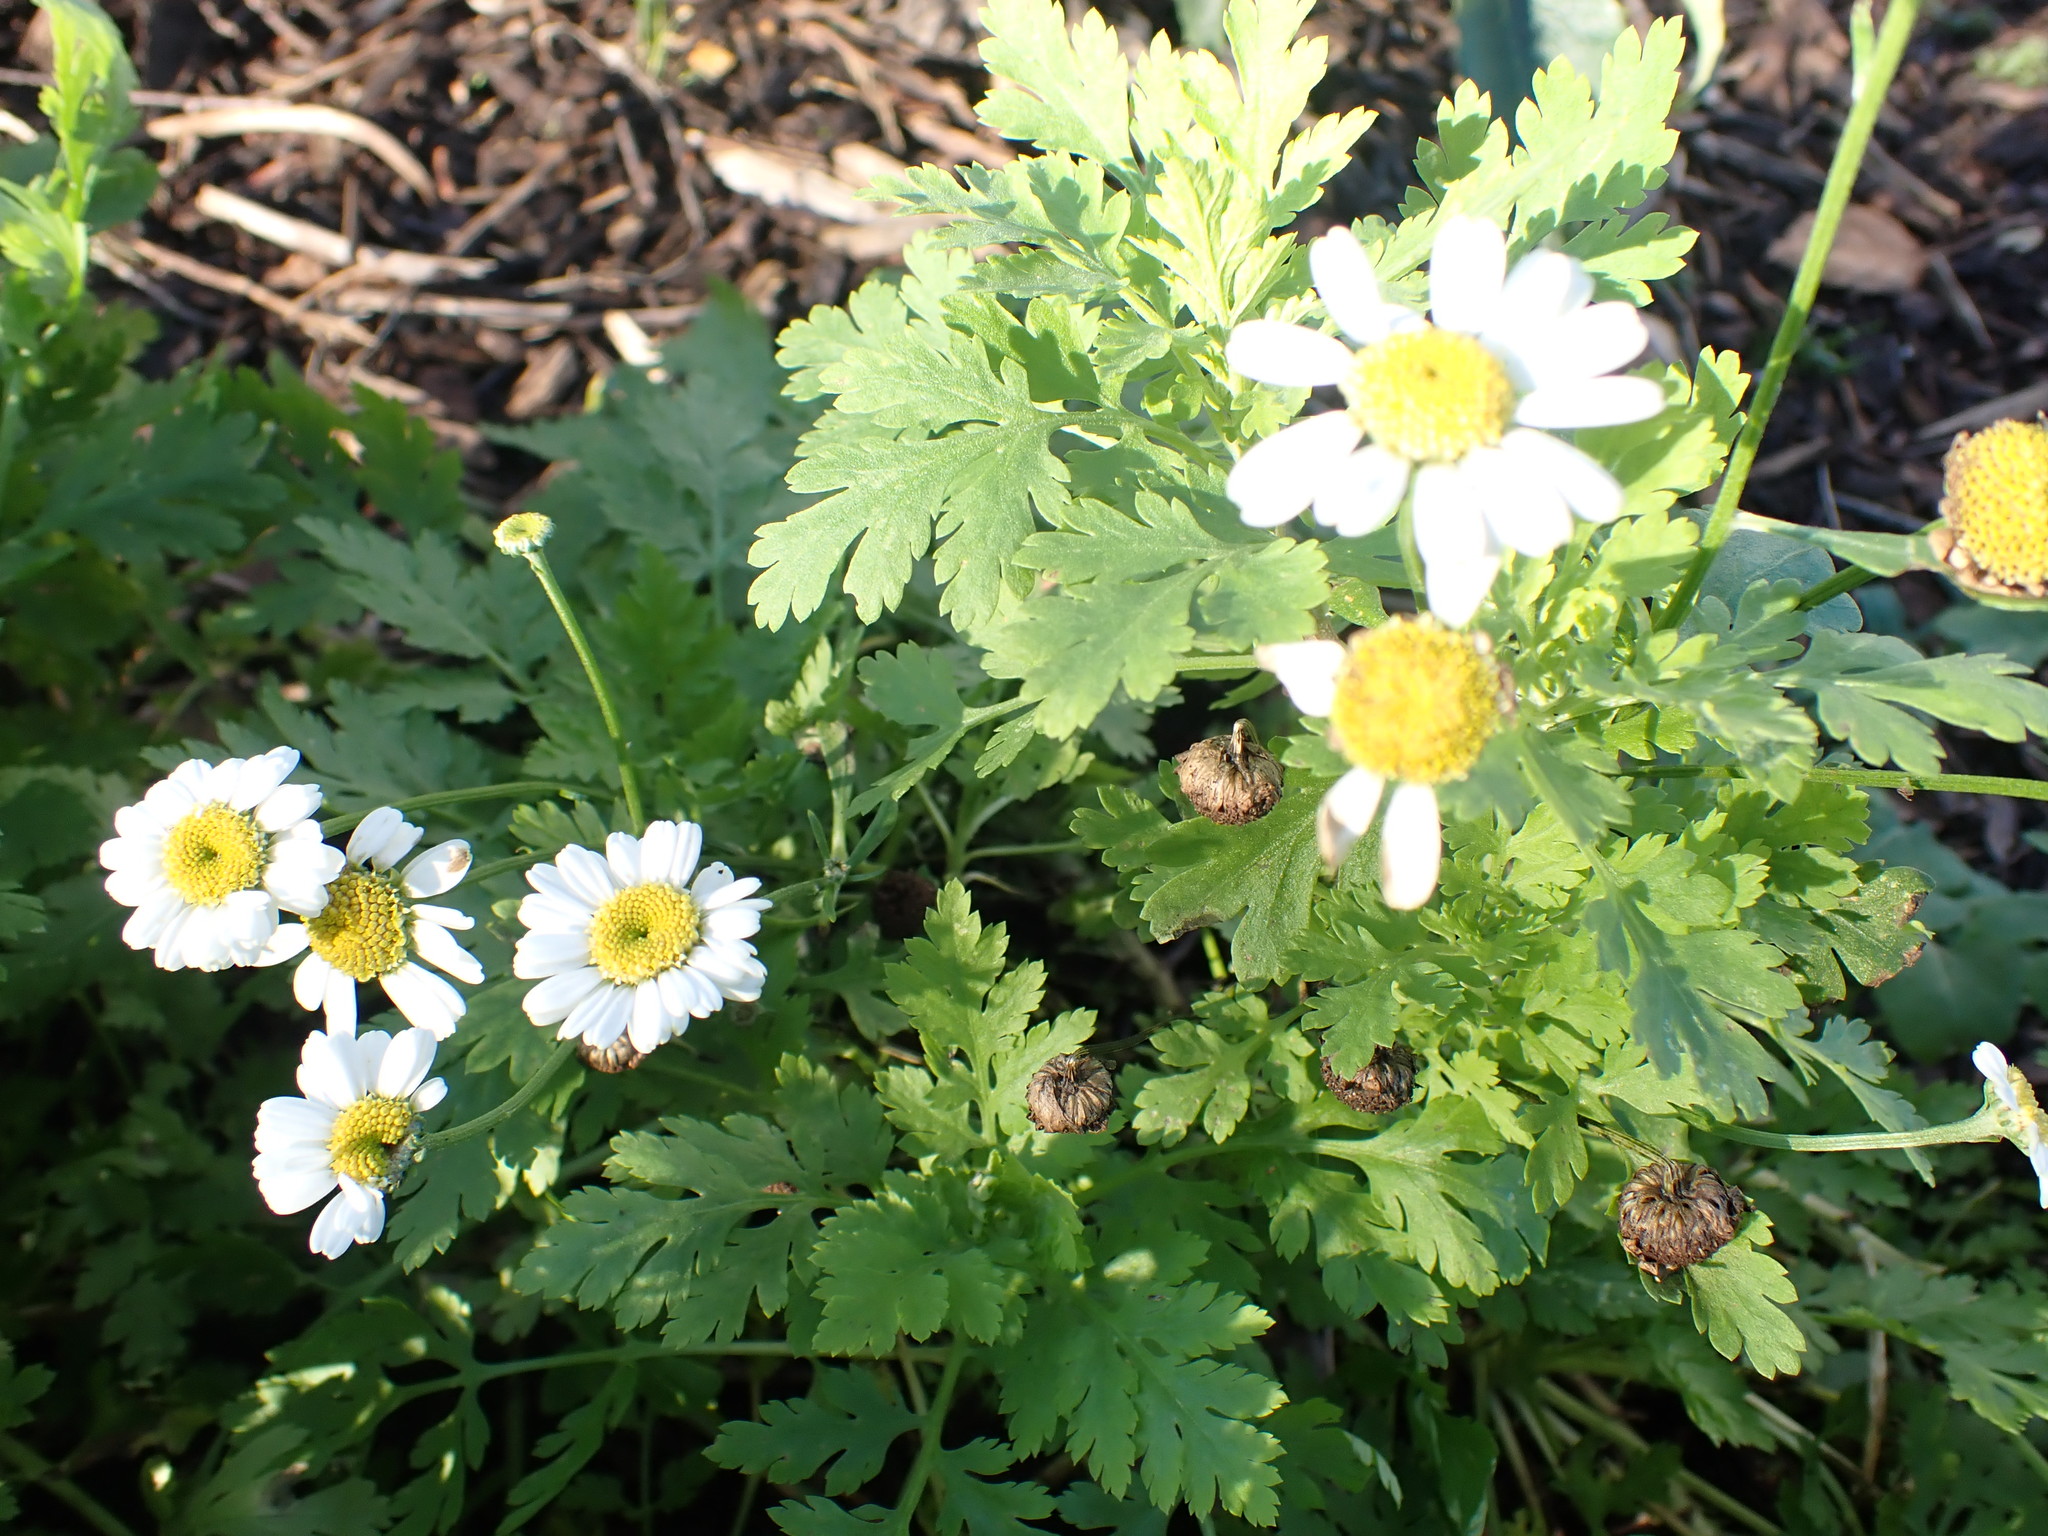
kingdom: Plantae
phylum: Tracheophyta
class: Magnoliopsida
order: Asterales
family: Asteraceae
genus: Tanacetum
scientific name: Tanacetum parthenium
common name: Feverfew
